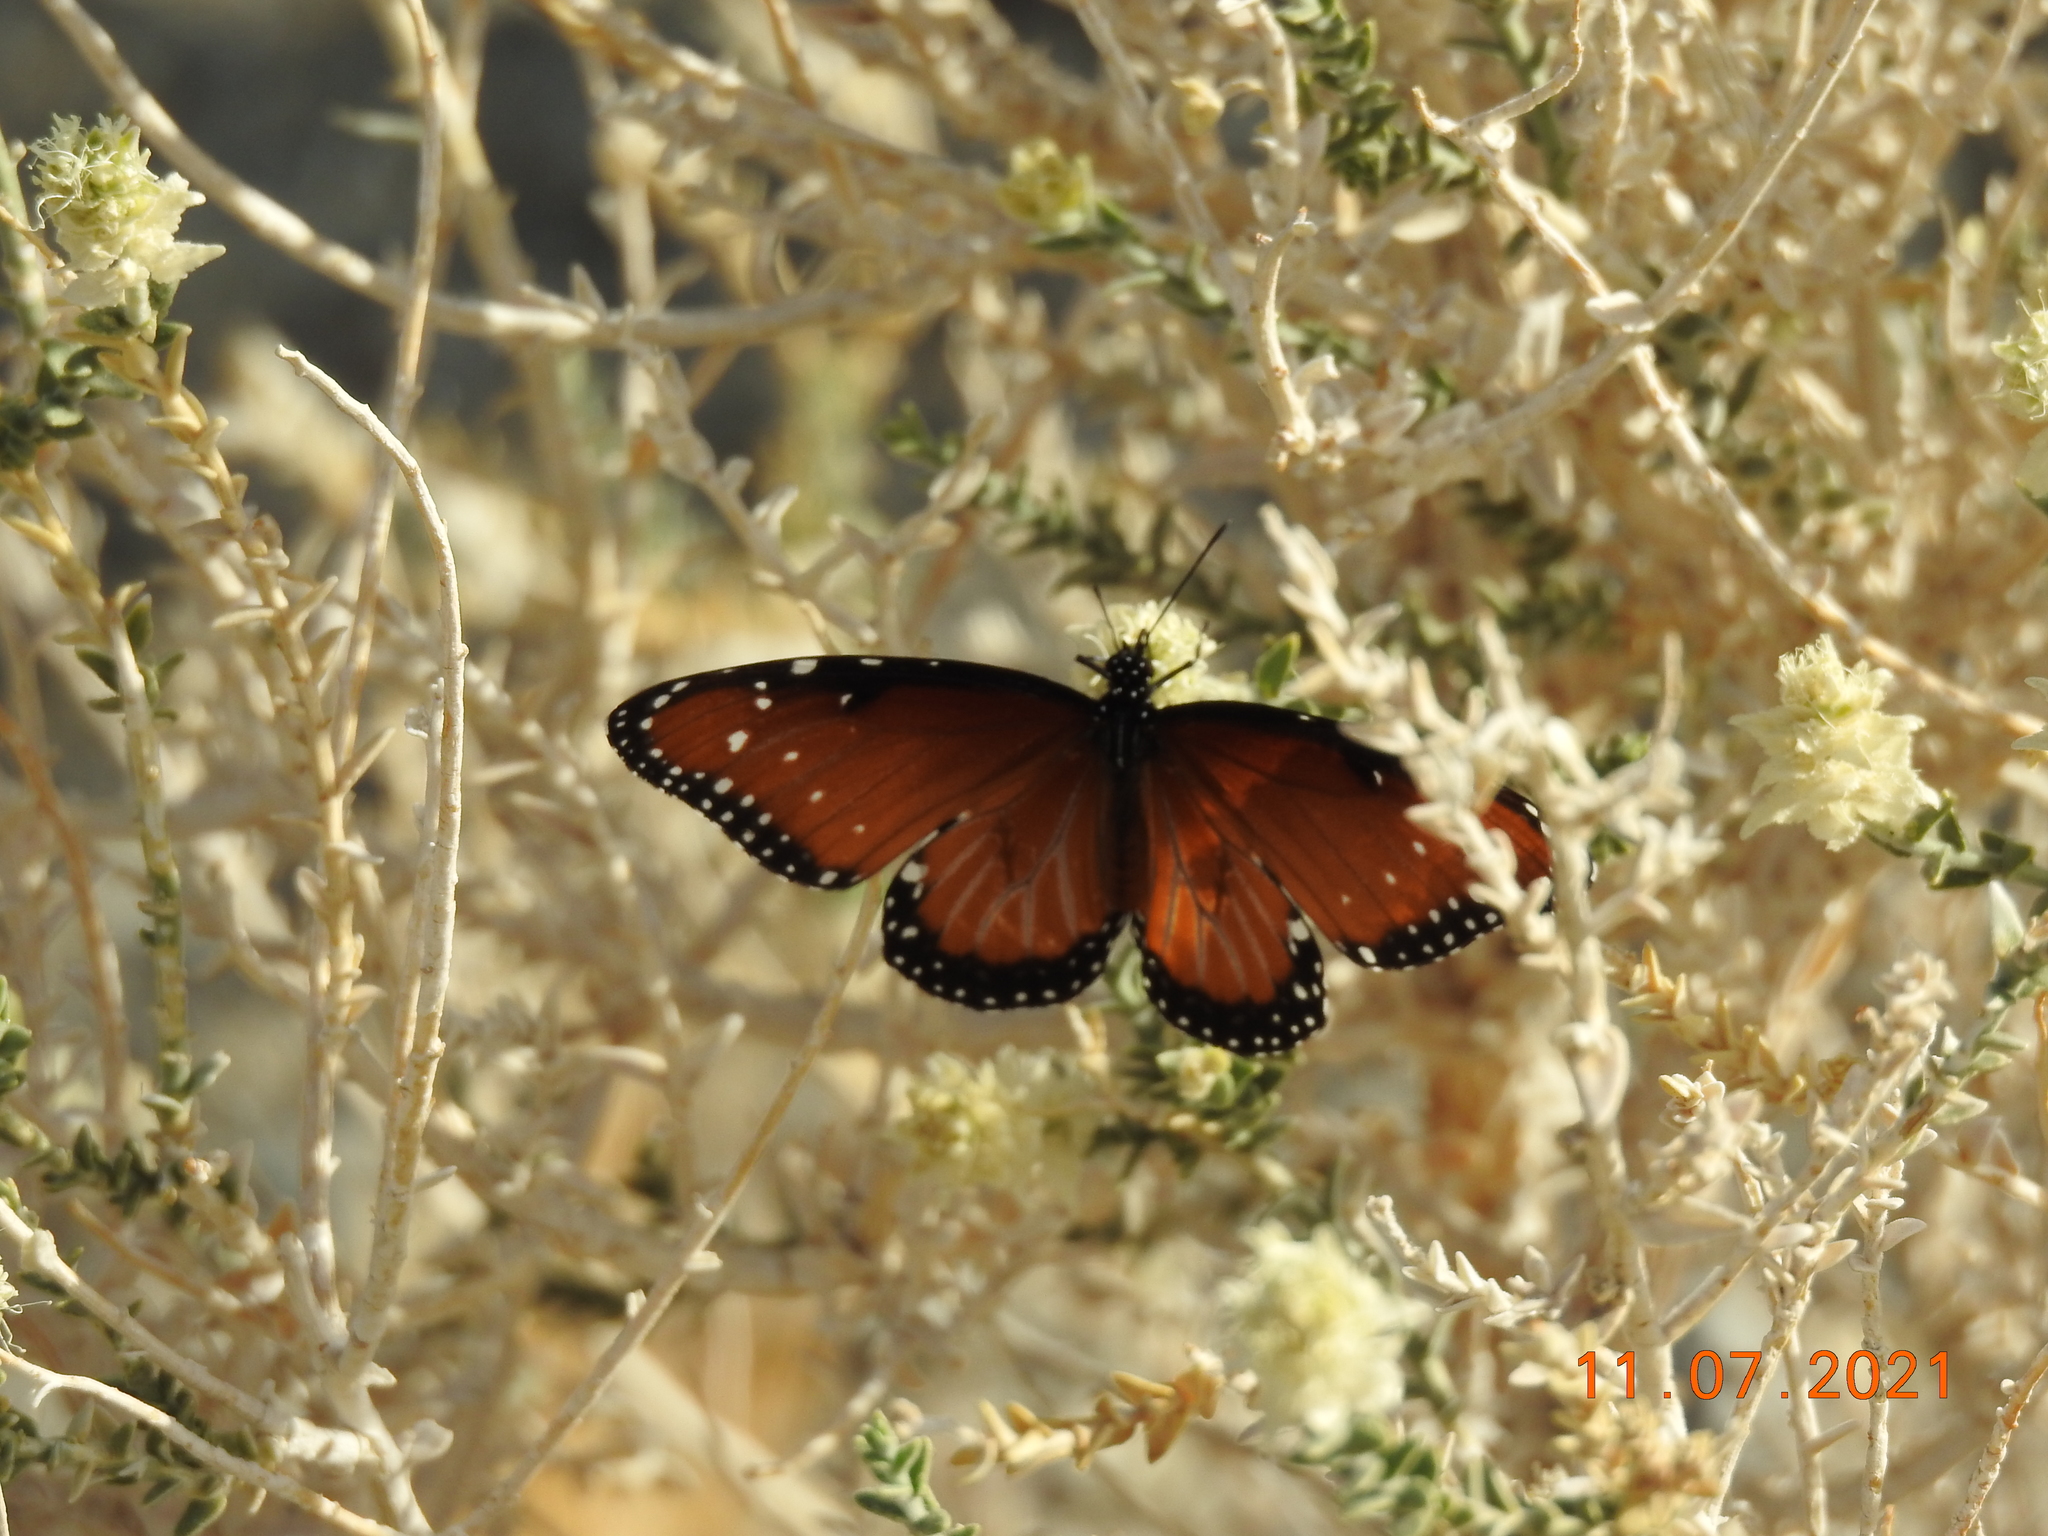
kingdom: Animalia
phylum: Arthropoda
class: Insecta
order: Lepidoptera
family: Nymphalidae
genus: Danaus
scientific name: Danaus gilippus
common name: Queen
